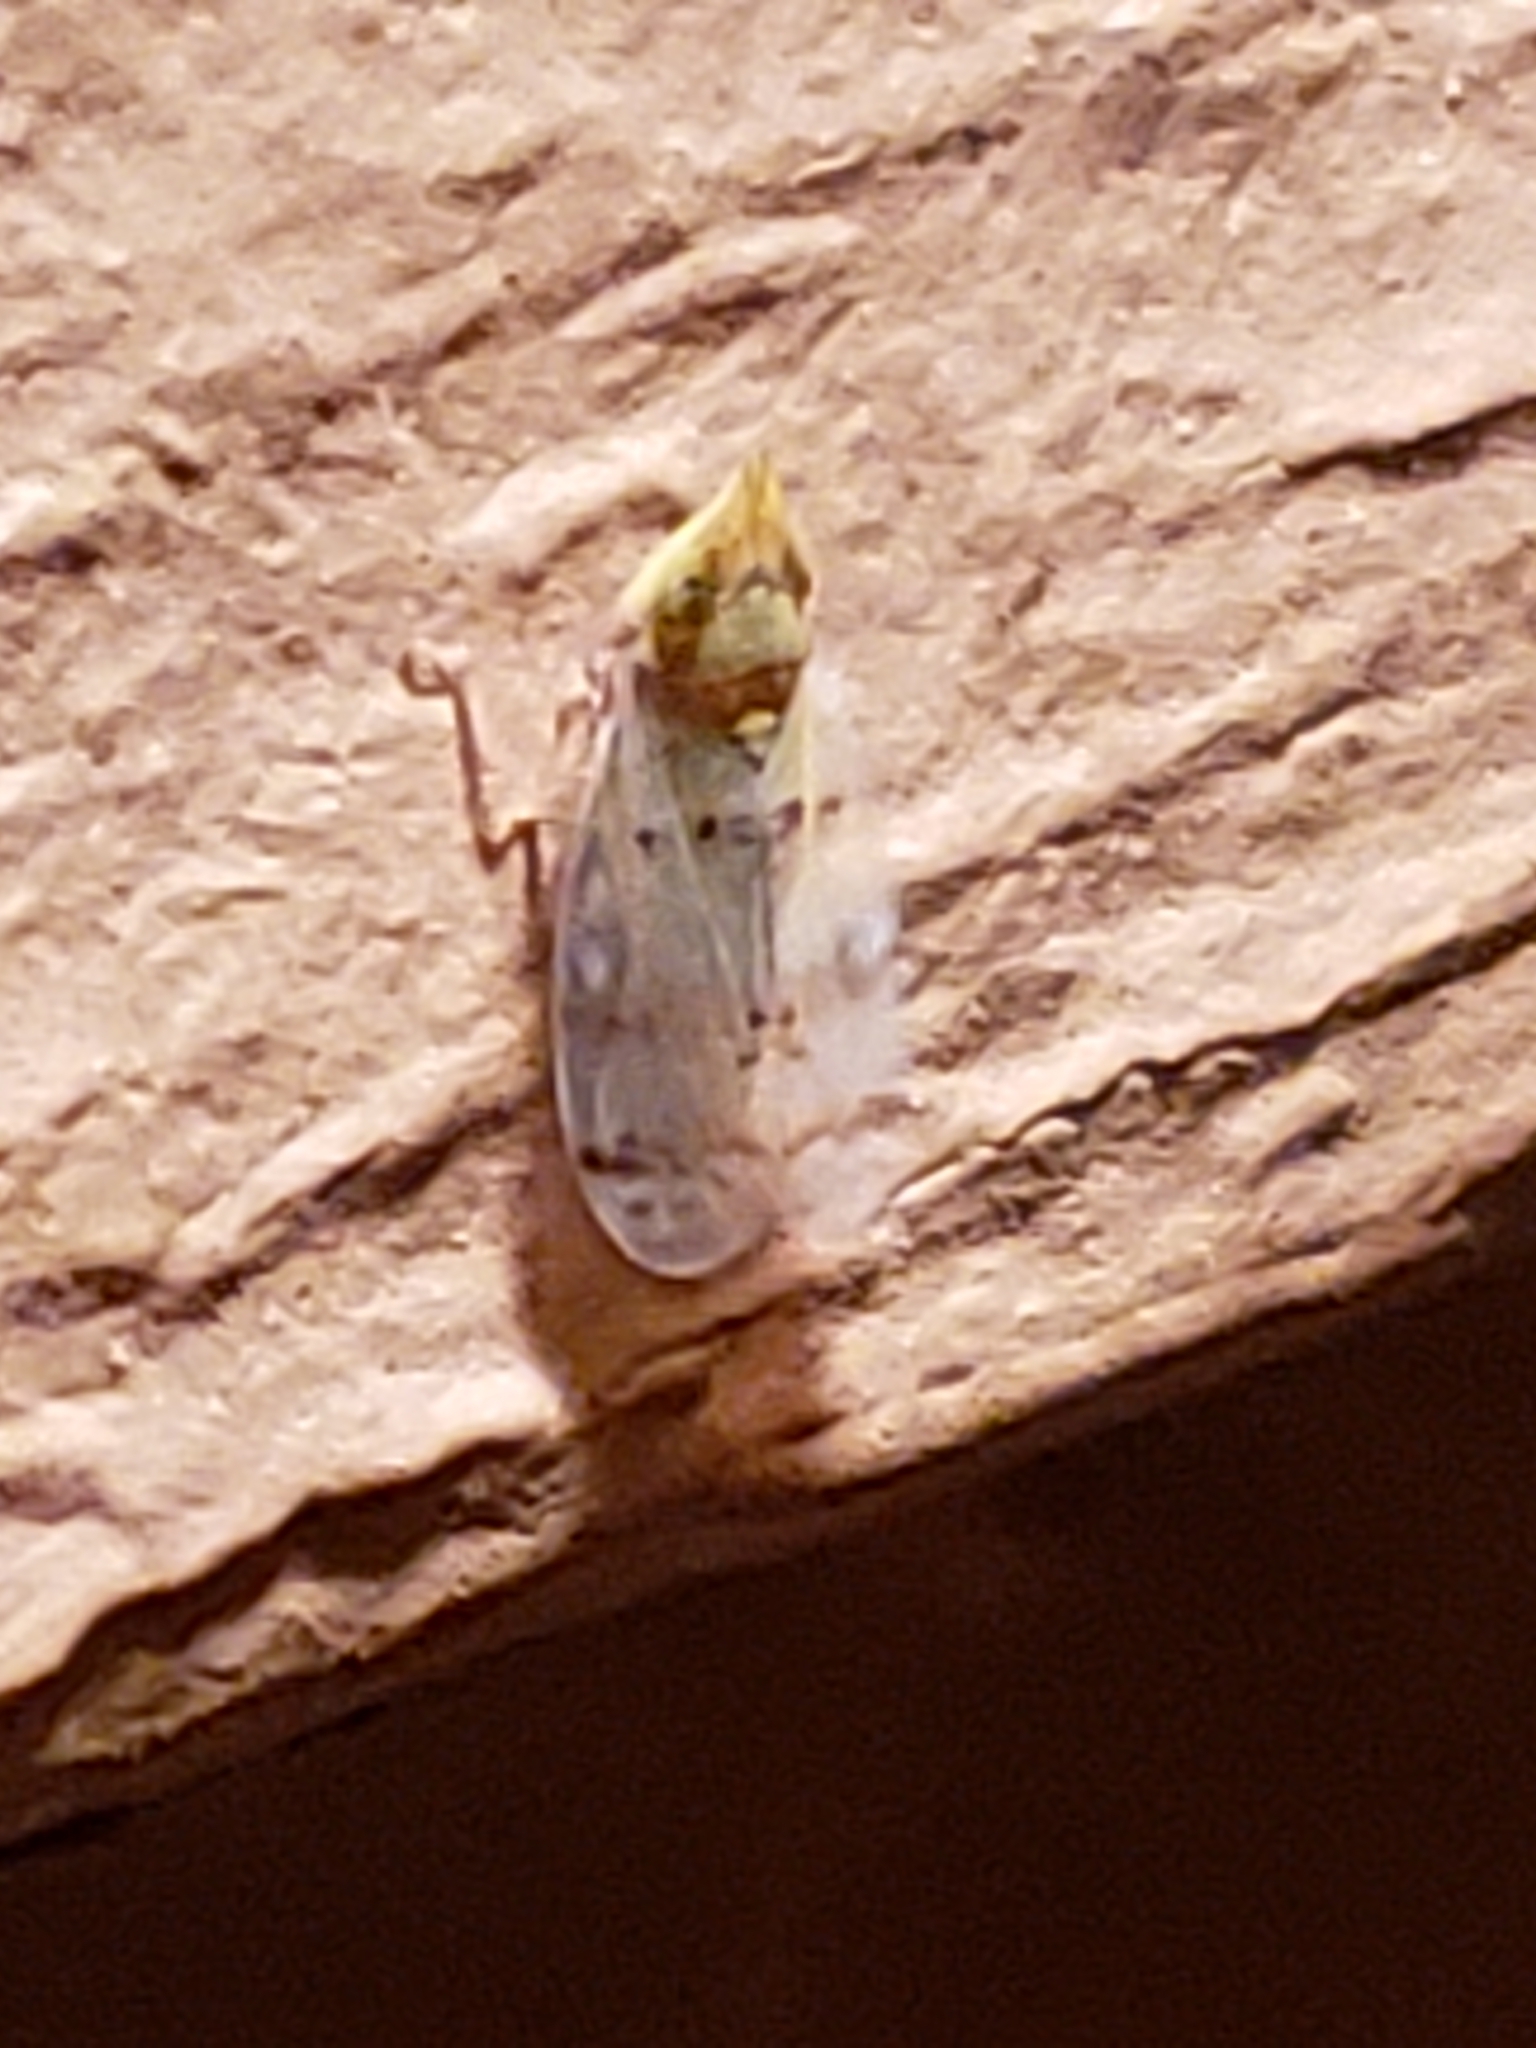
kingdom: Animalia
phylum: Arthropoda
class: Insecta
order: Hemiptera
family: Cicadellidae
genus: Japananus
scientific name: Japananus hyalinus
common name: The japanese maple leafhopper
